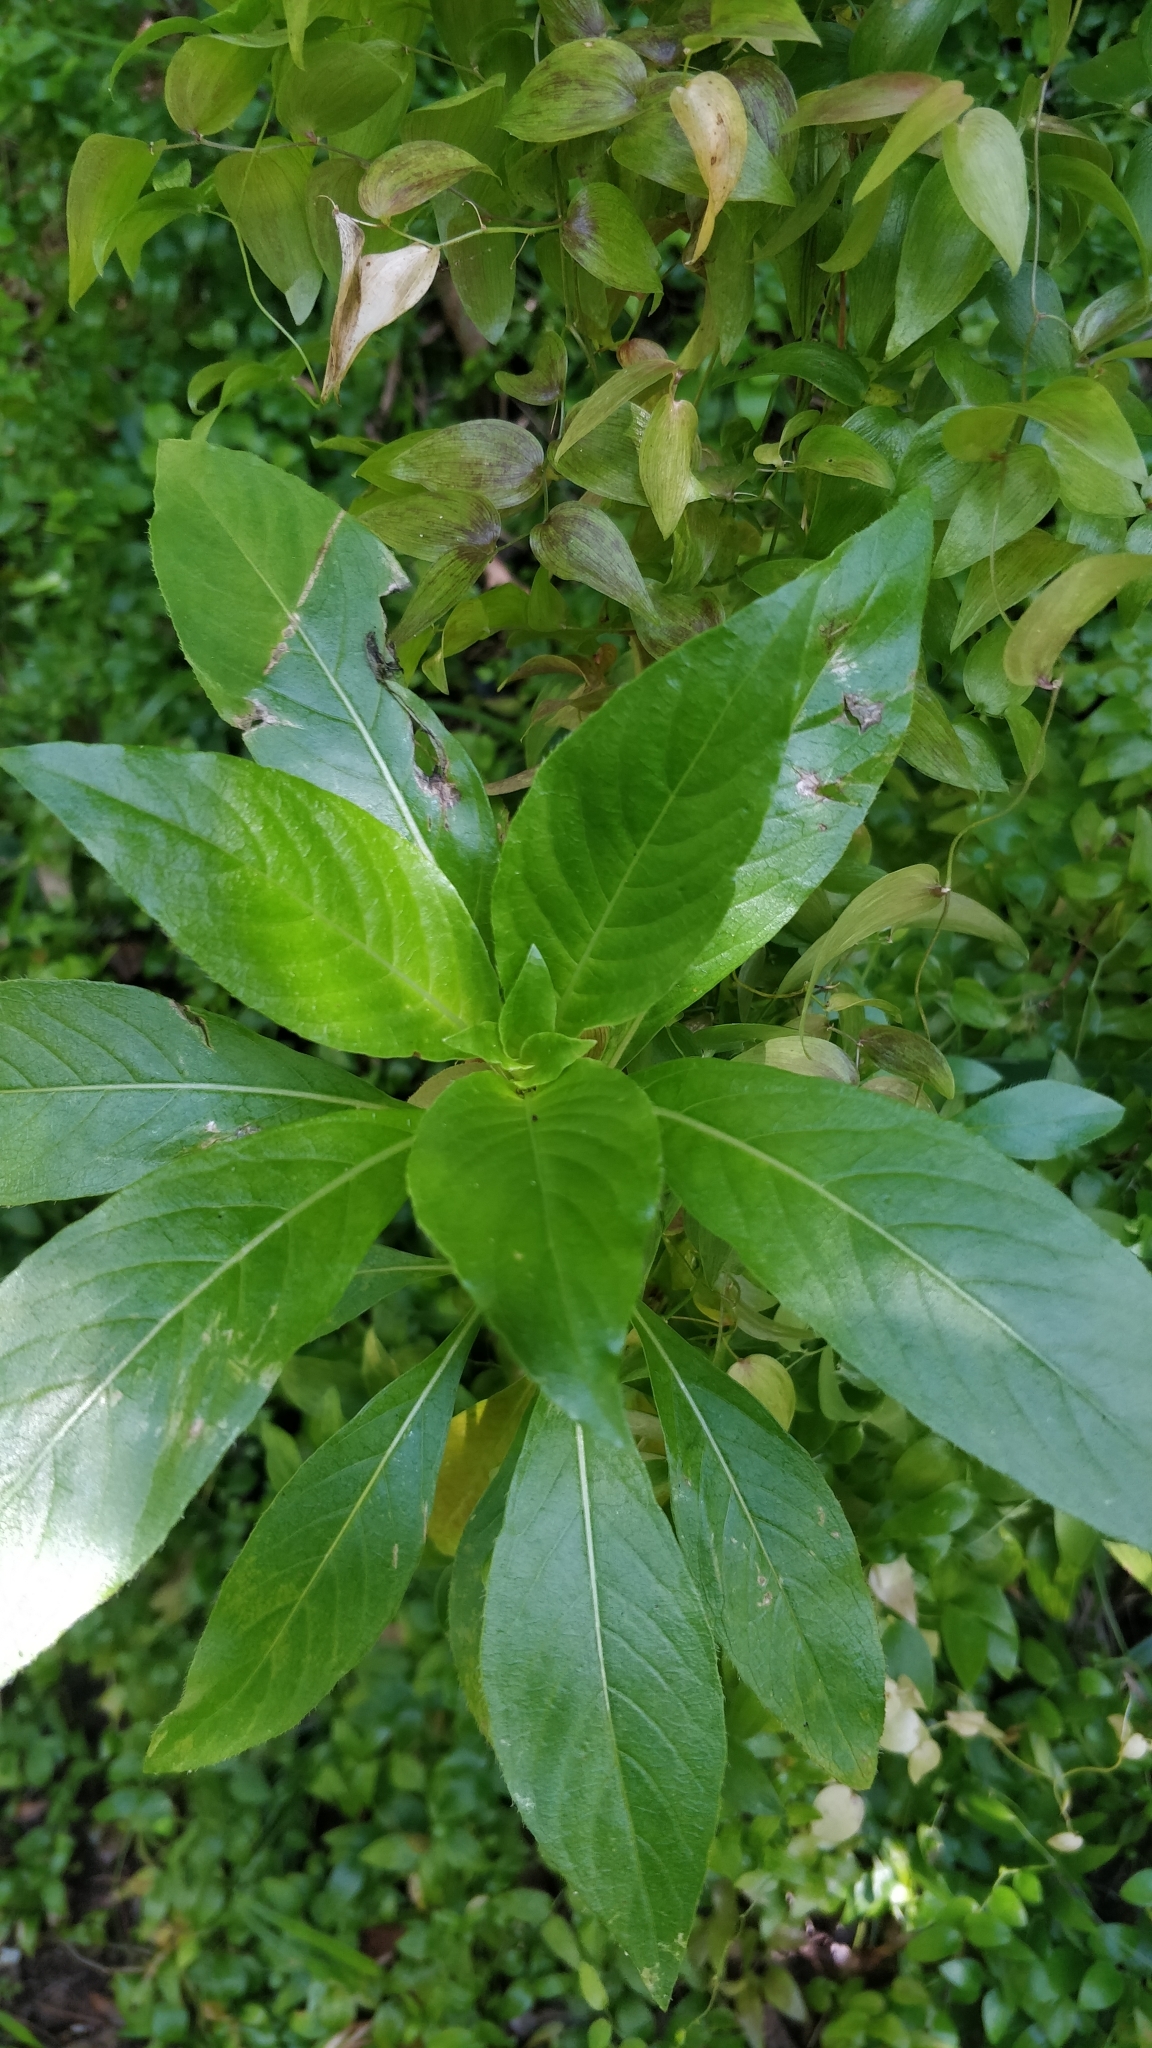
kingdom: Plantae
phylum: Tracheophyta
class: Magnoliopsida
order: Gentianales
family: Rubiaceae
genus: Phyllis
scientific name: Phyllis nobla
